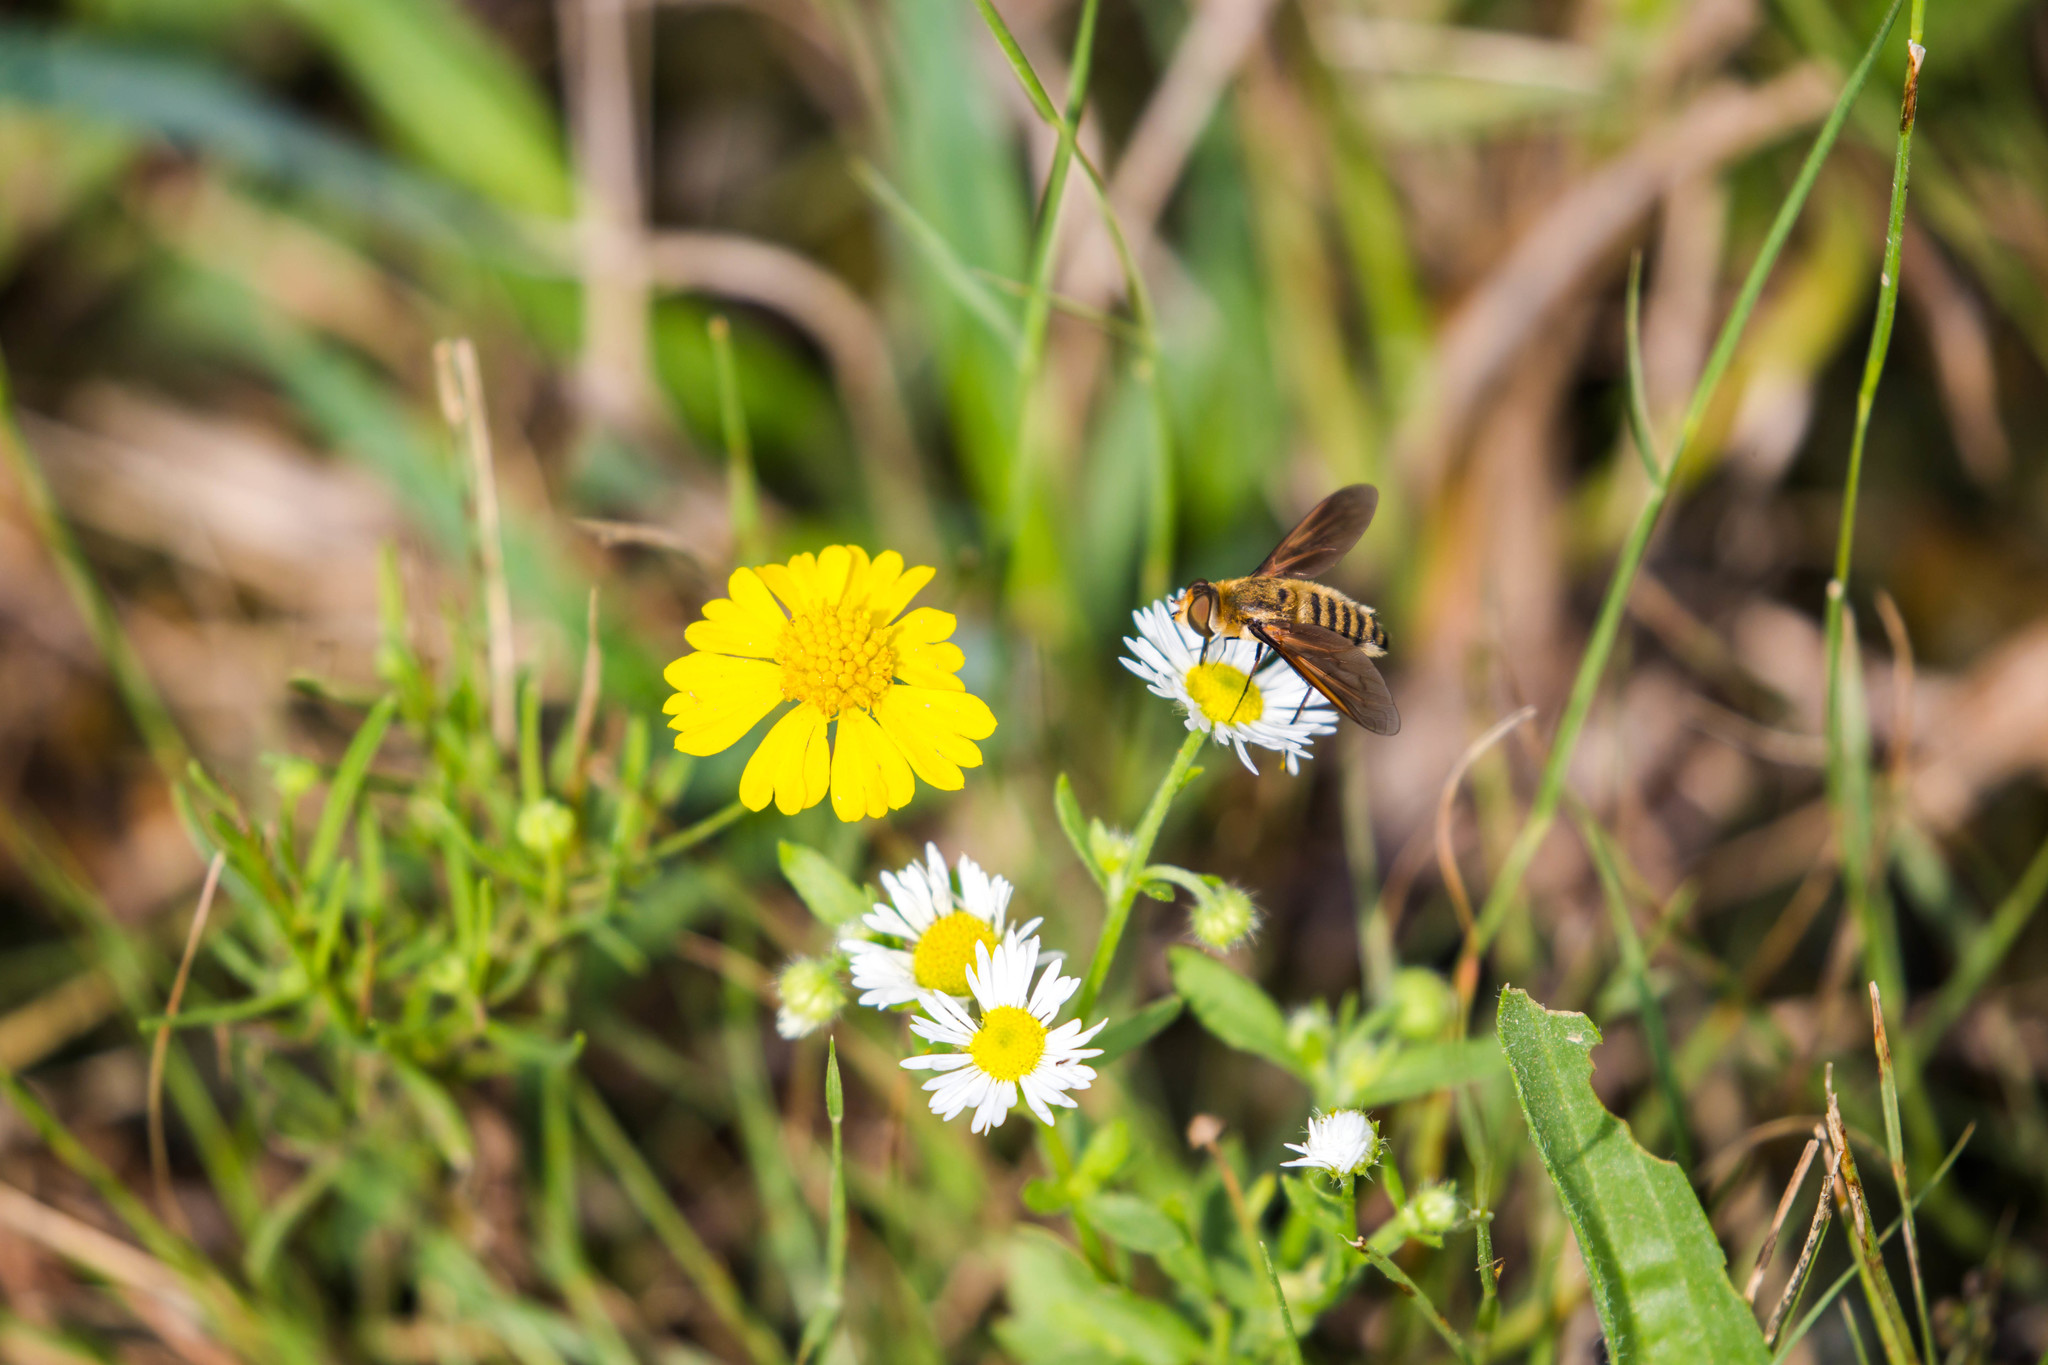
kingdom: Animalia
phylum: Arthropoda
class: Insecta
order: Diptera
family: Bombyliidae
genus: Poecilanthrax
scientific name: Poecilanthrax lucifer
